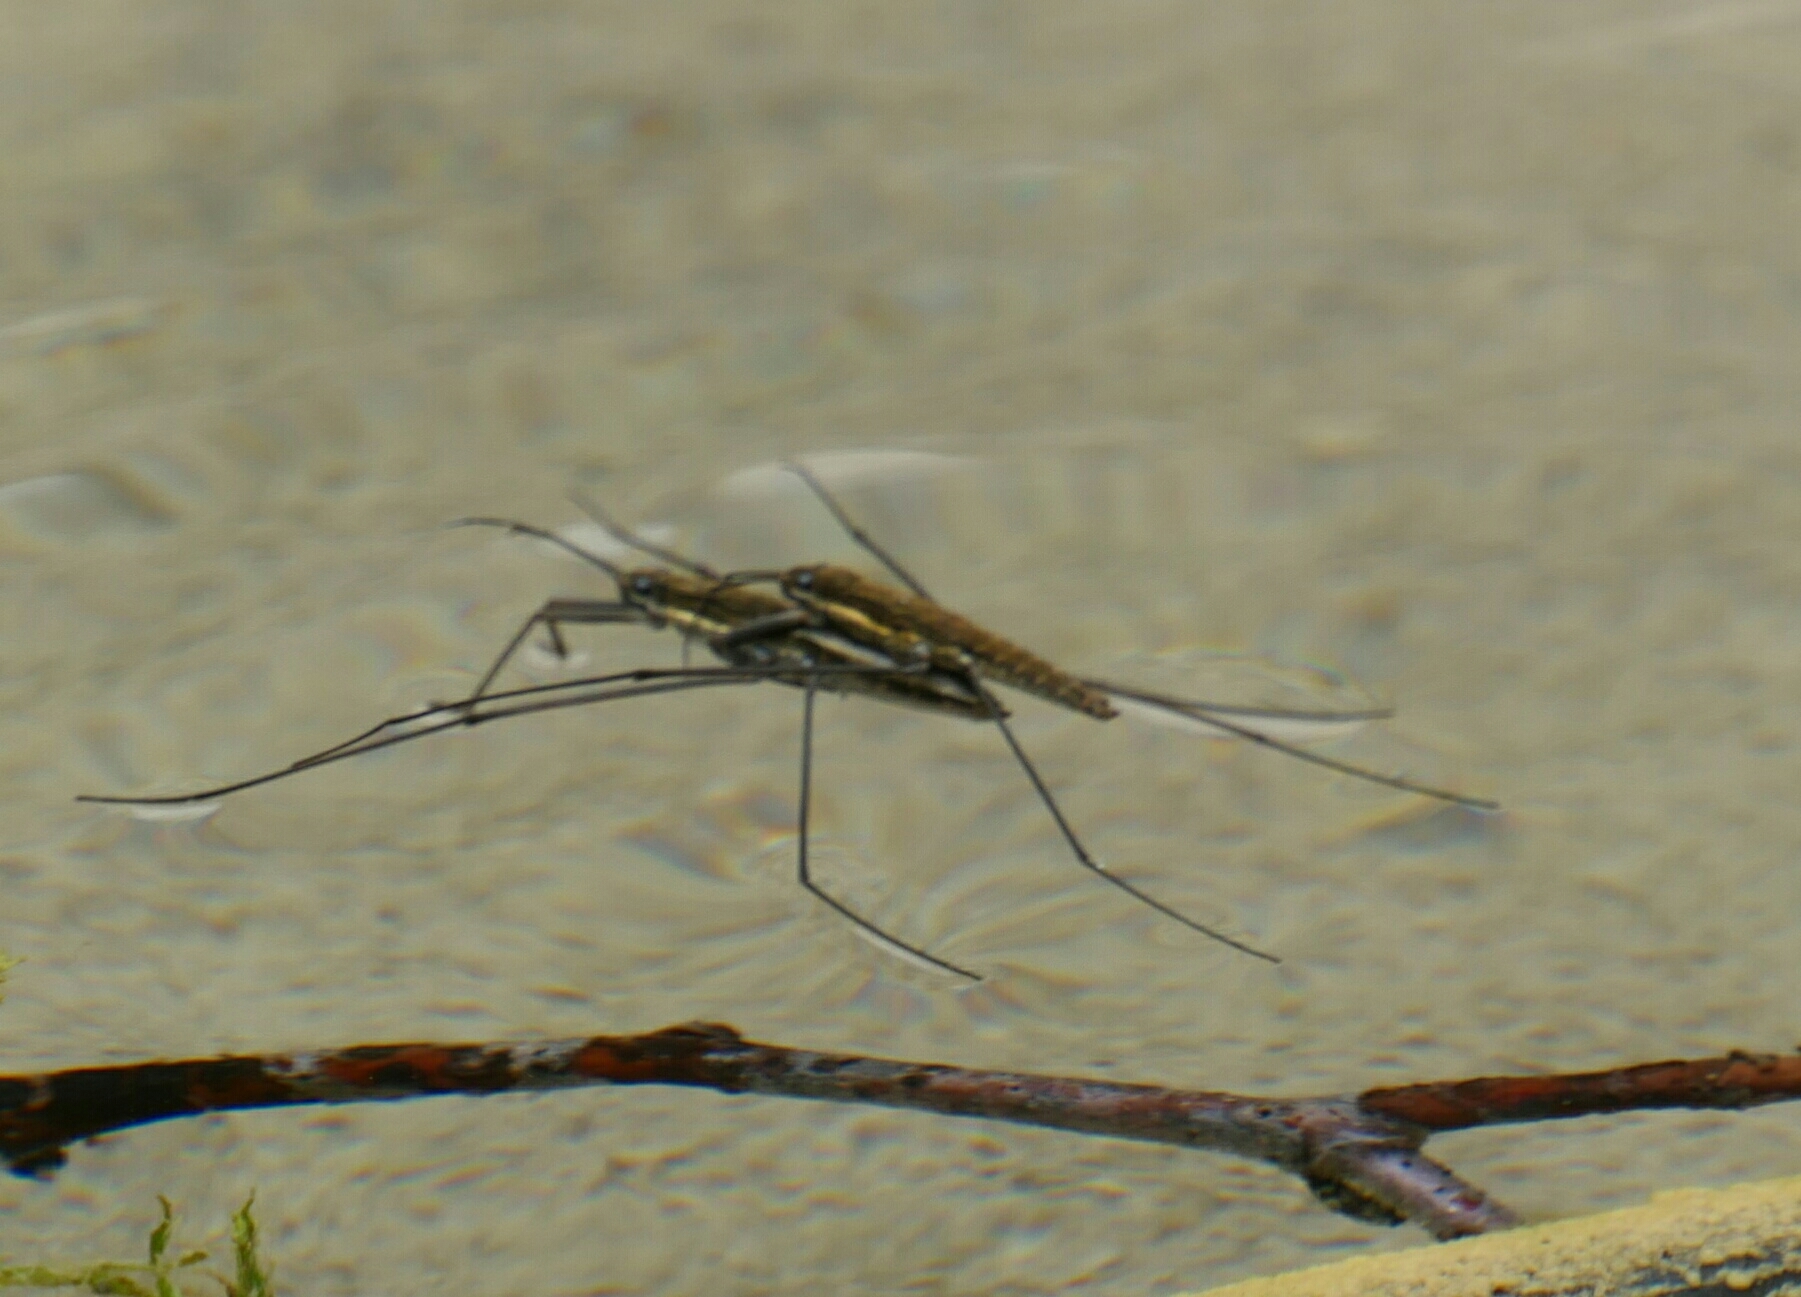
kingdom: Animalia
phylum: Arthropoda
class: Insecta
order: Hemiptera
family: Gerridae
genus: Aquarius
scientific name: Aquarius najas
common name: River skater
